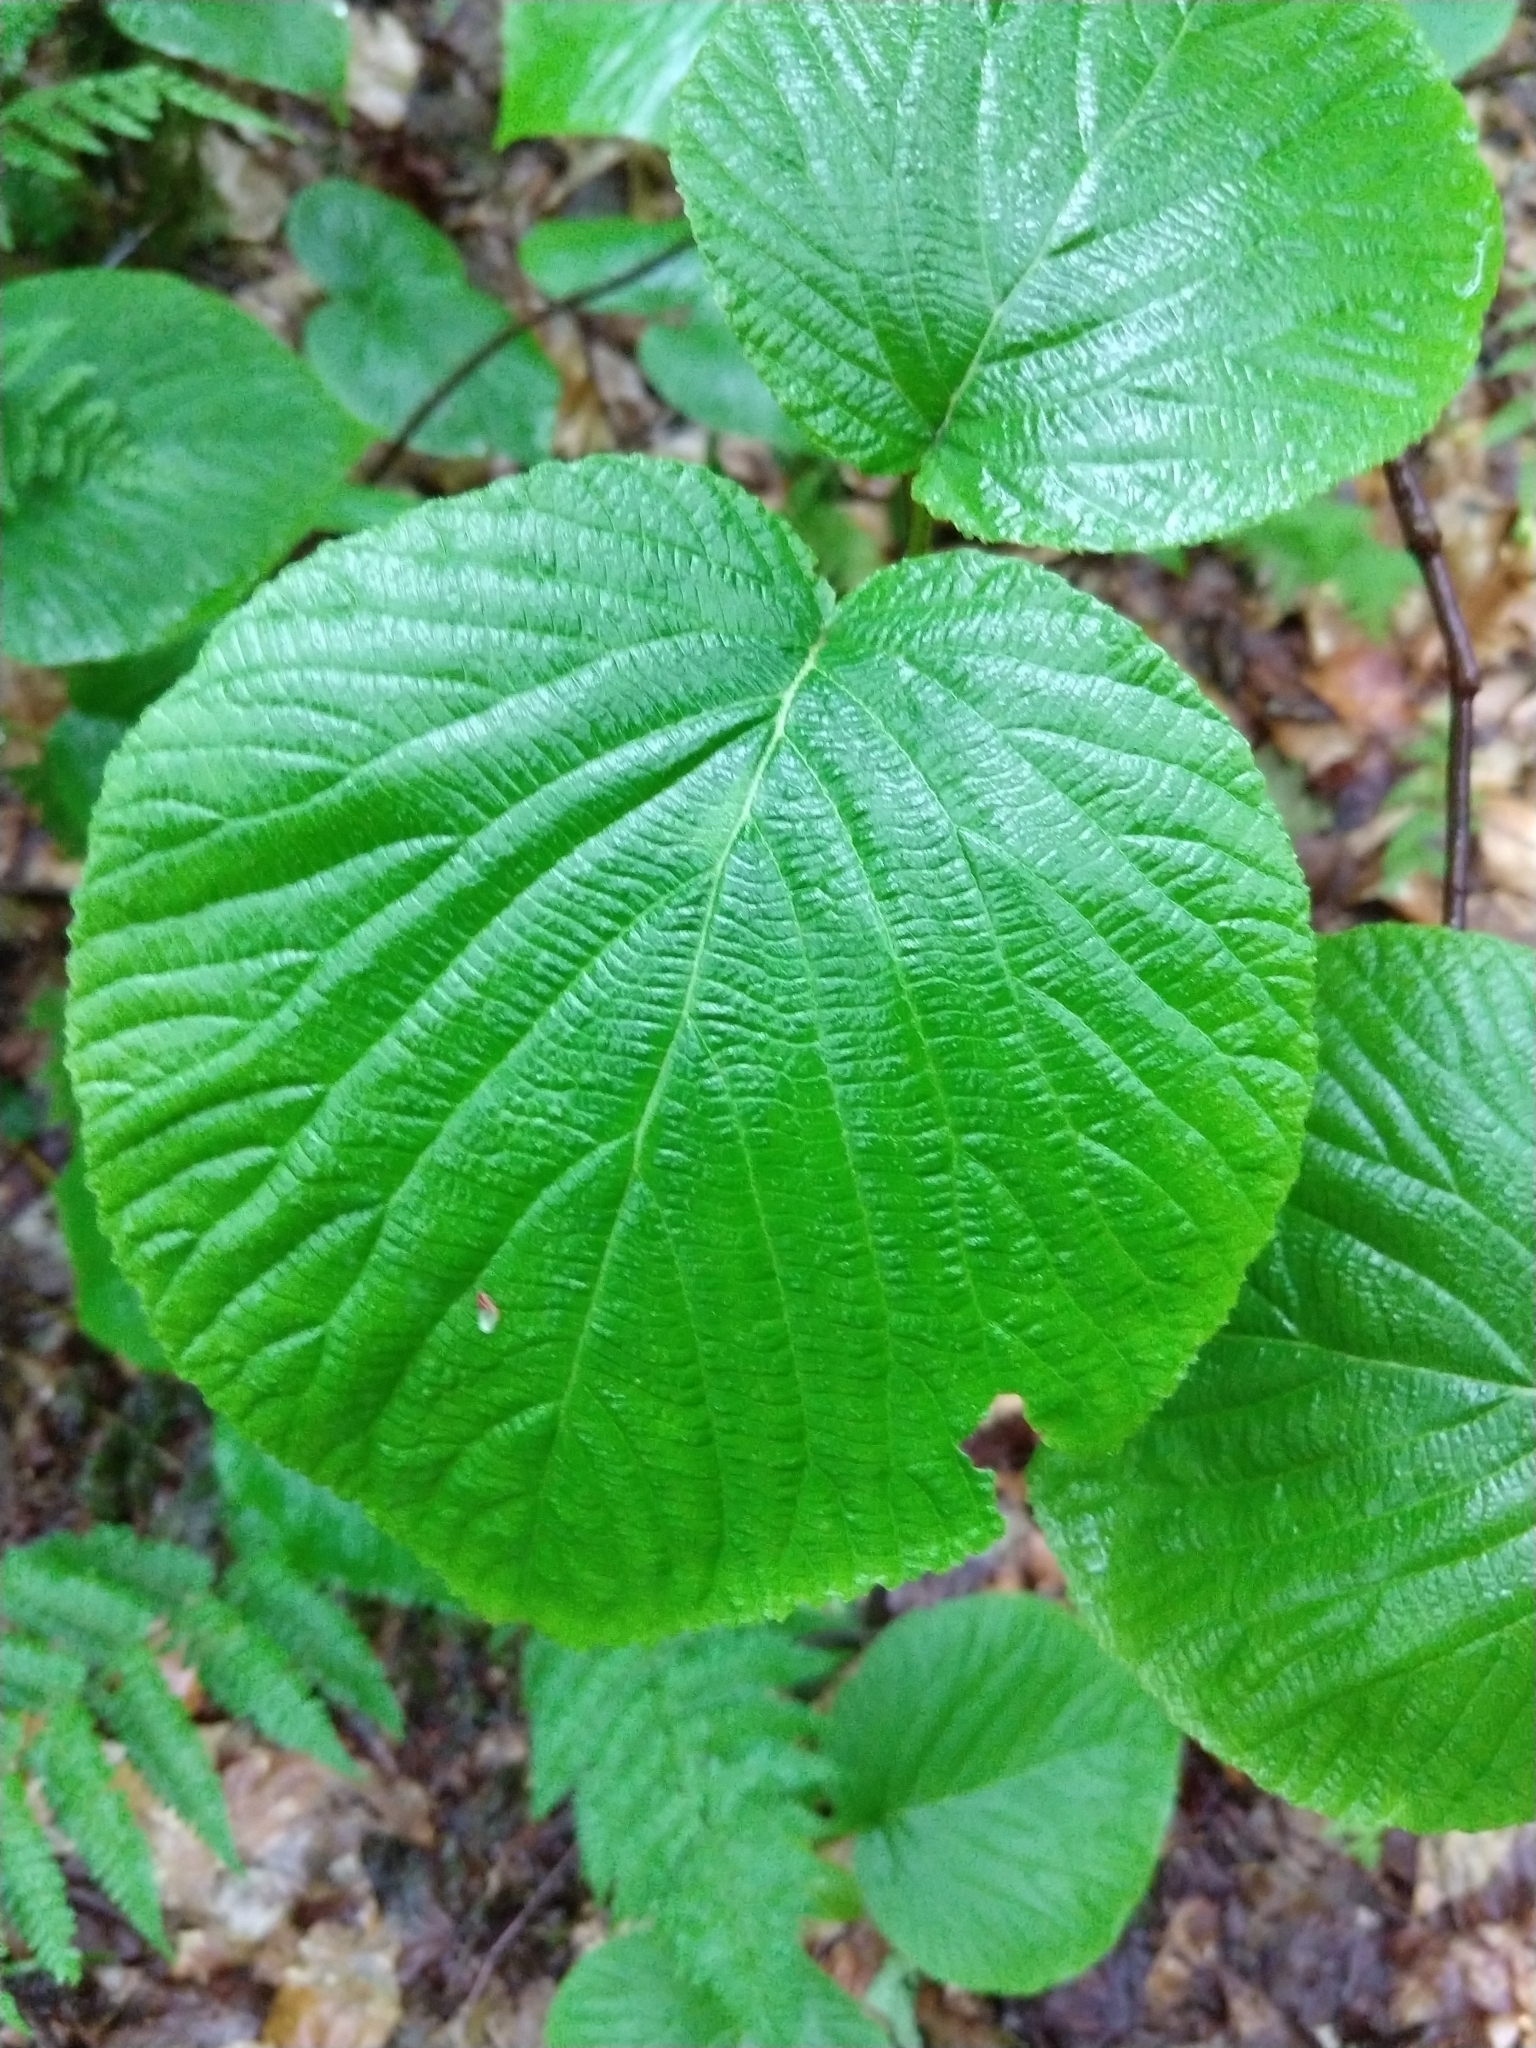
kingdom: Plantae
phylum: Tracheophyta
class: Magnoliopsida
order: Dipsacales
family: Viburnaceae
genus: Viburnum
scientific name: Viburnum lantanoides
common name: Hobblebush
